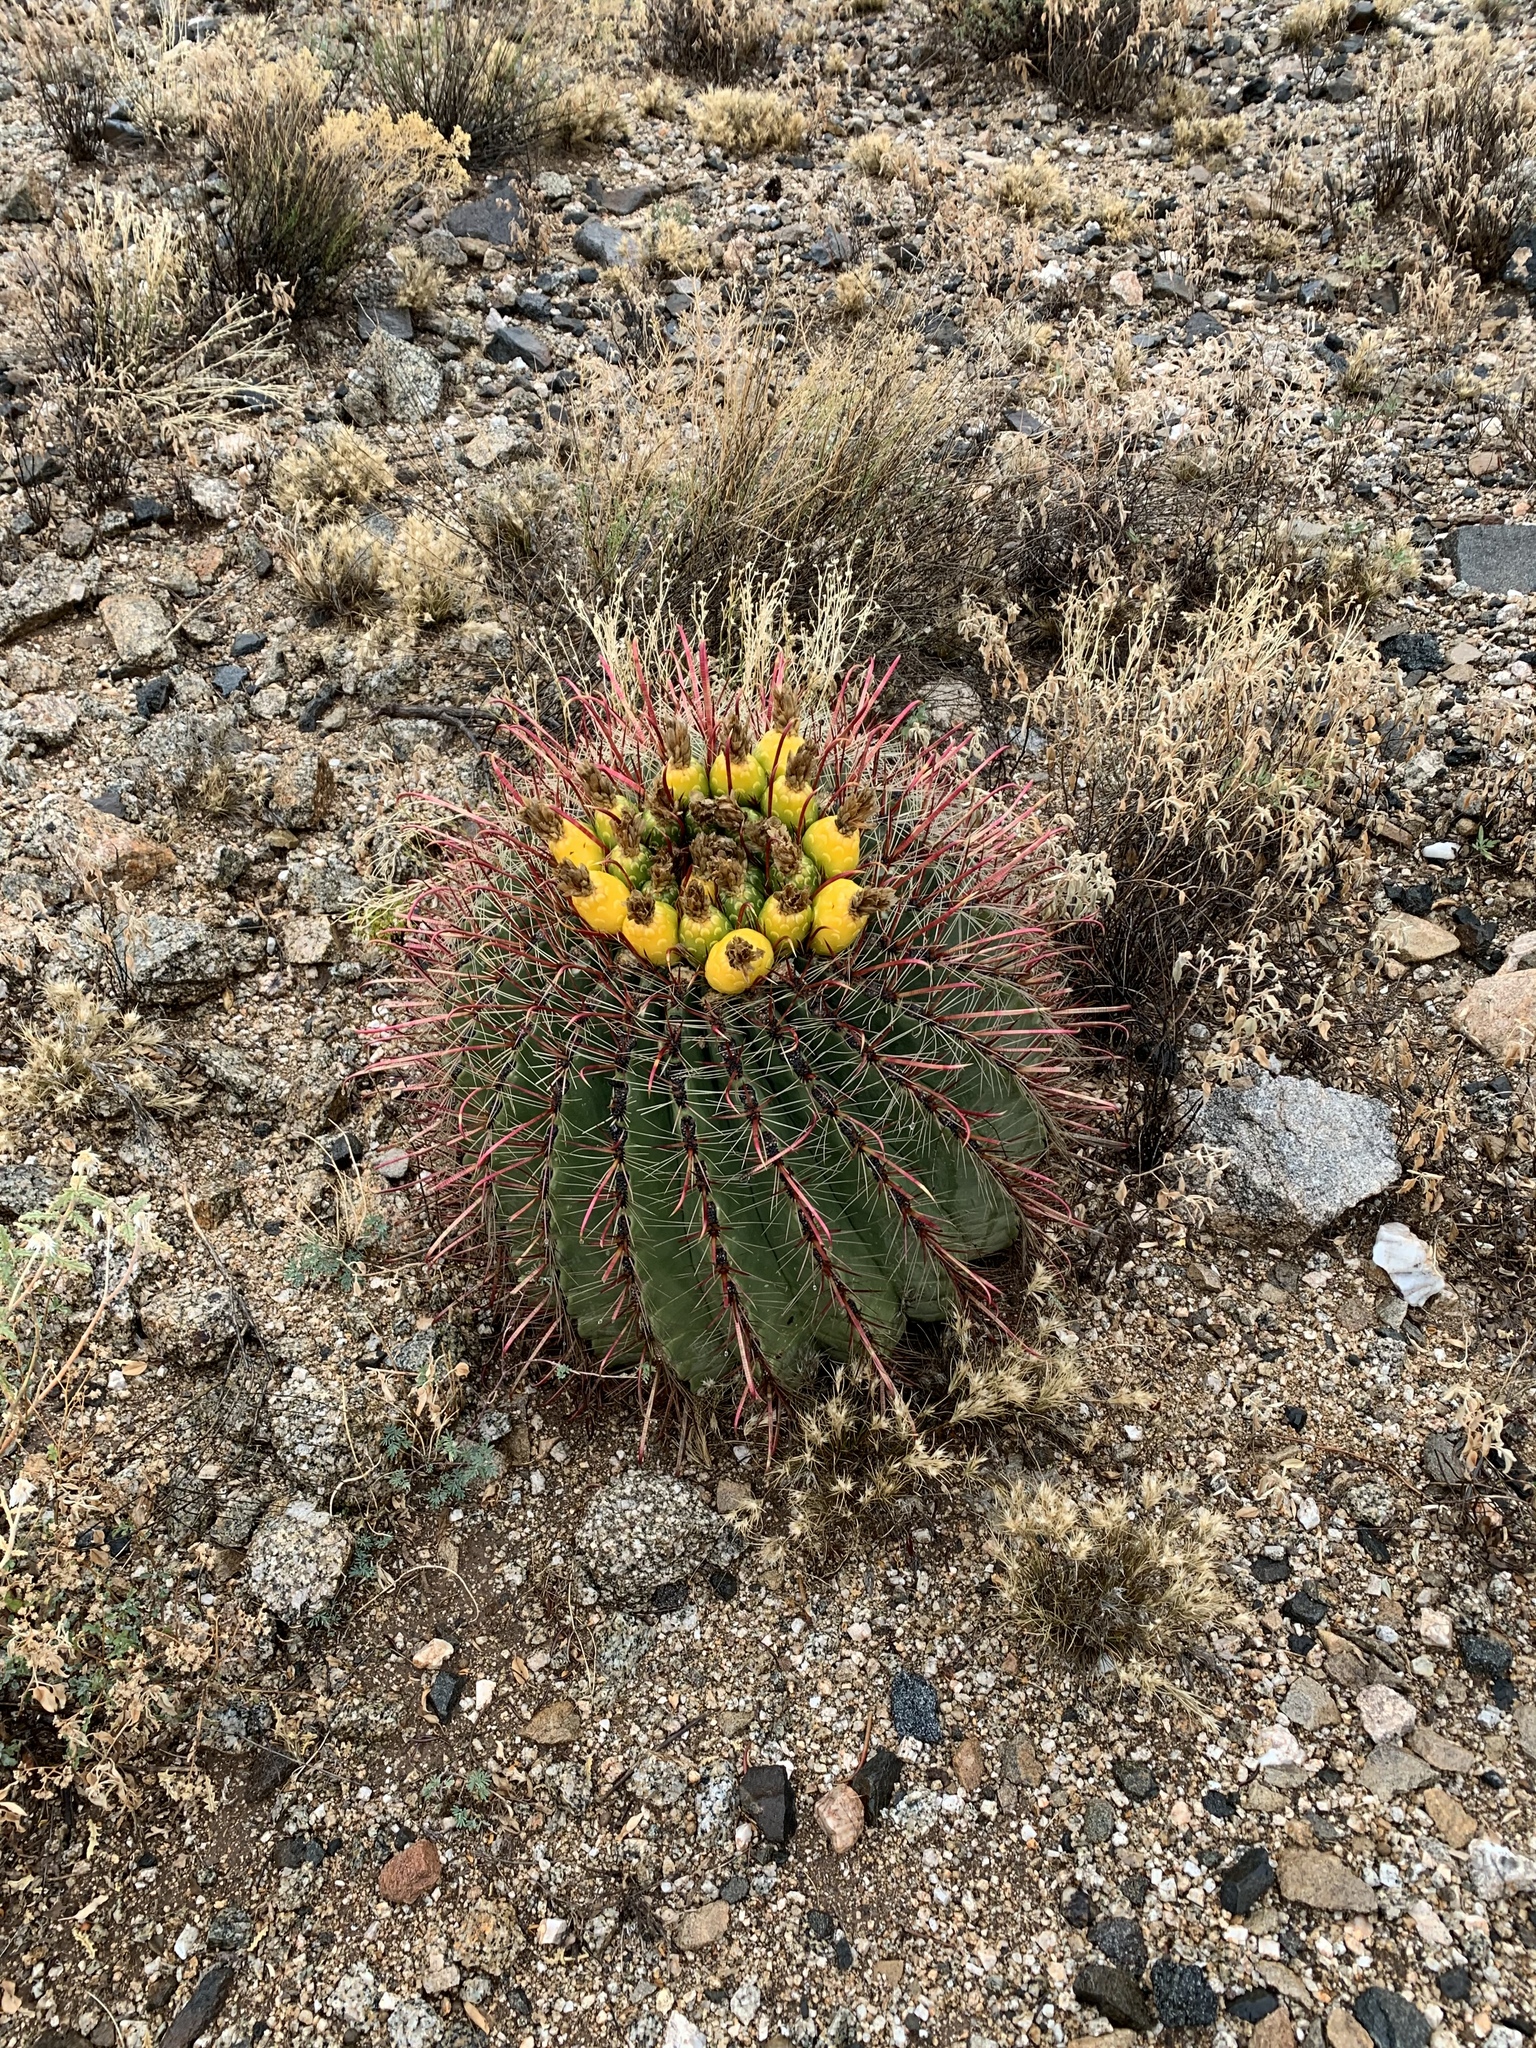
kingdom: Plantae
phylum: Tracheophyta
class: Magnoliopsida
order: Caryophyllales
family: Cactaceae
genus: Ferocactus
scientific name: Ferocactus wislizeni
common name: Candy barrel cactus
